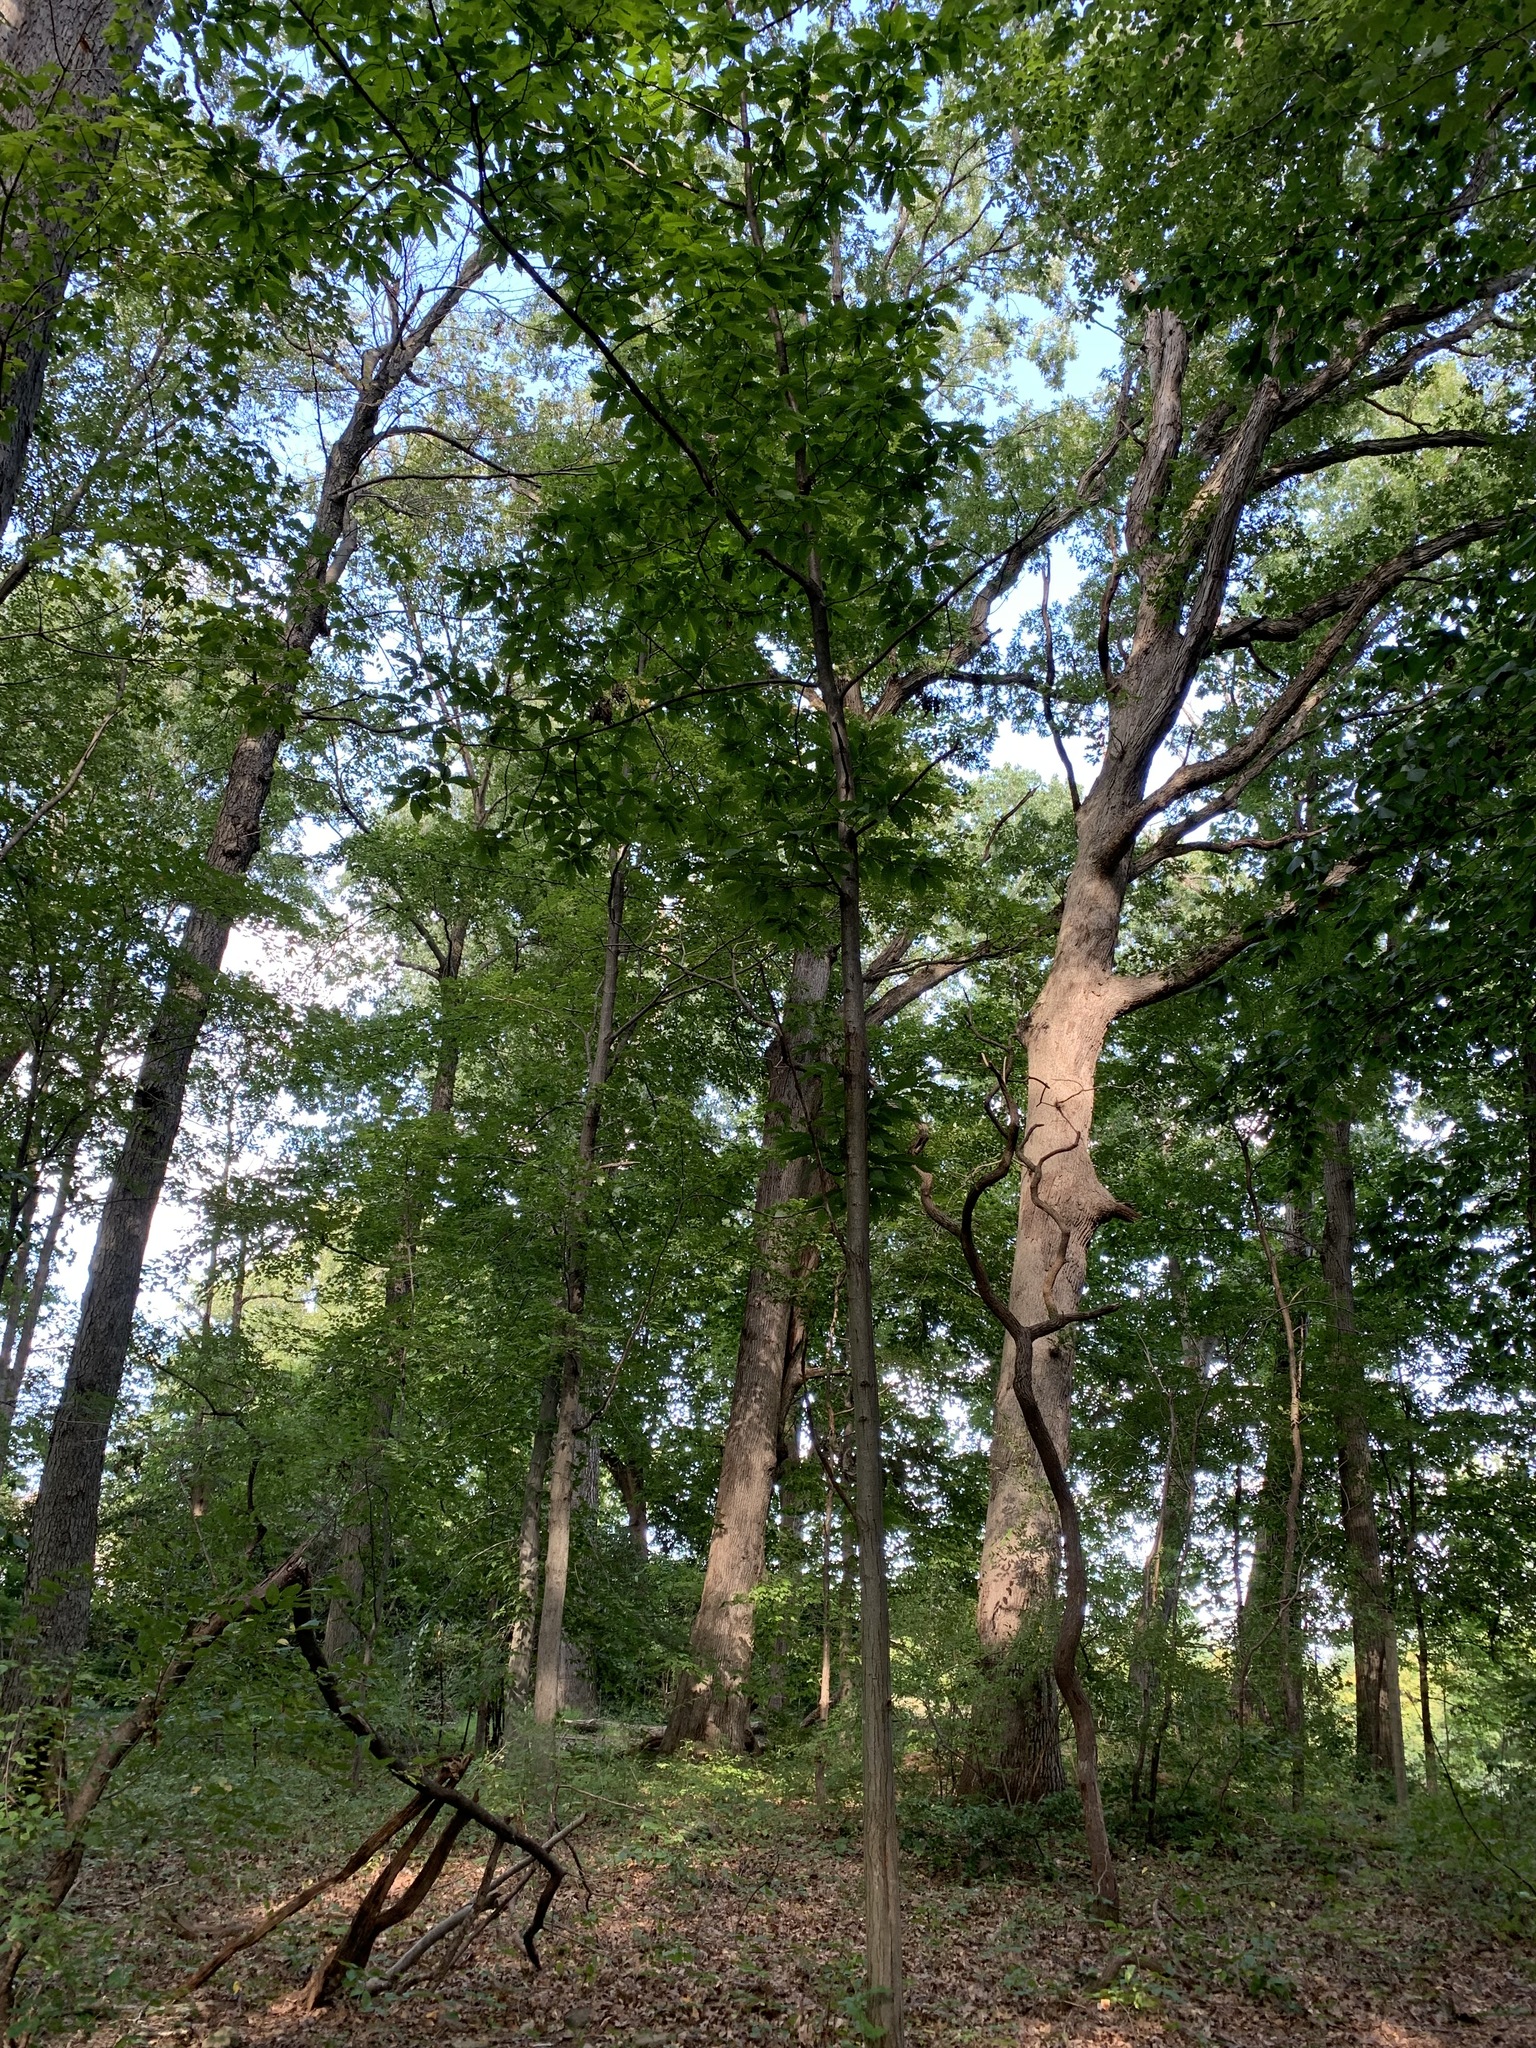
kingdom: Plantae
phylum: Tracheophyta
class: Magnoliopsida
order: Fagales
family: Fagaceae
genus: Castanea
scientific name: Castanea dentata
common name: American chestnut
